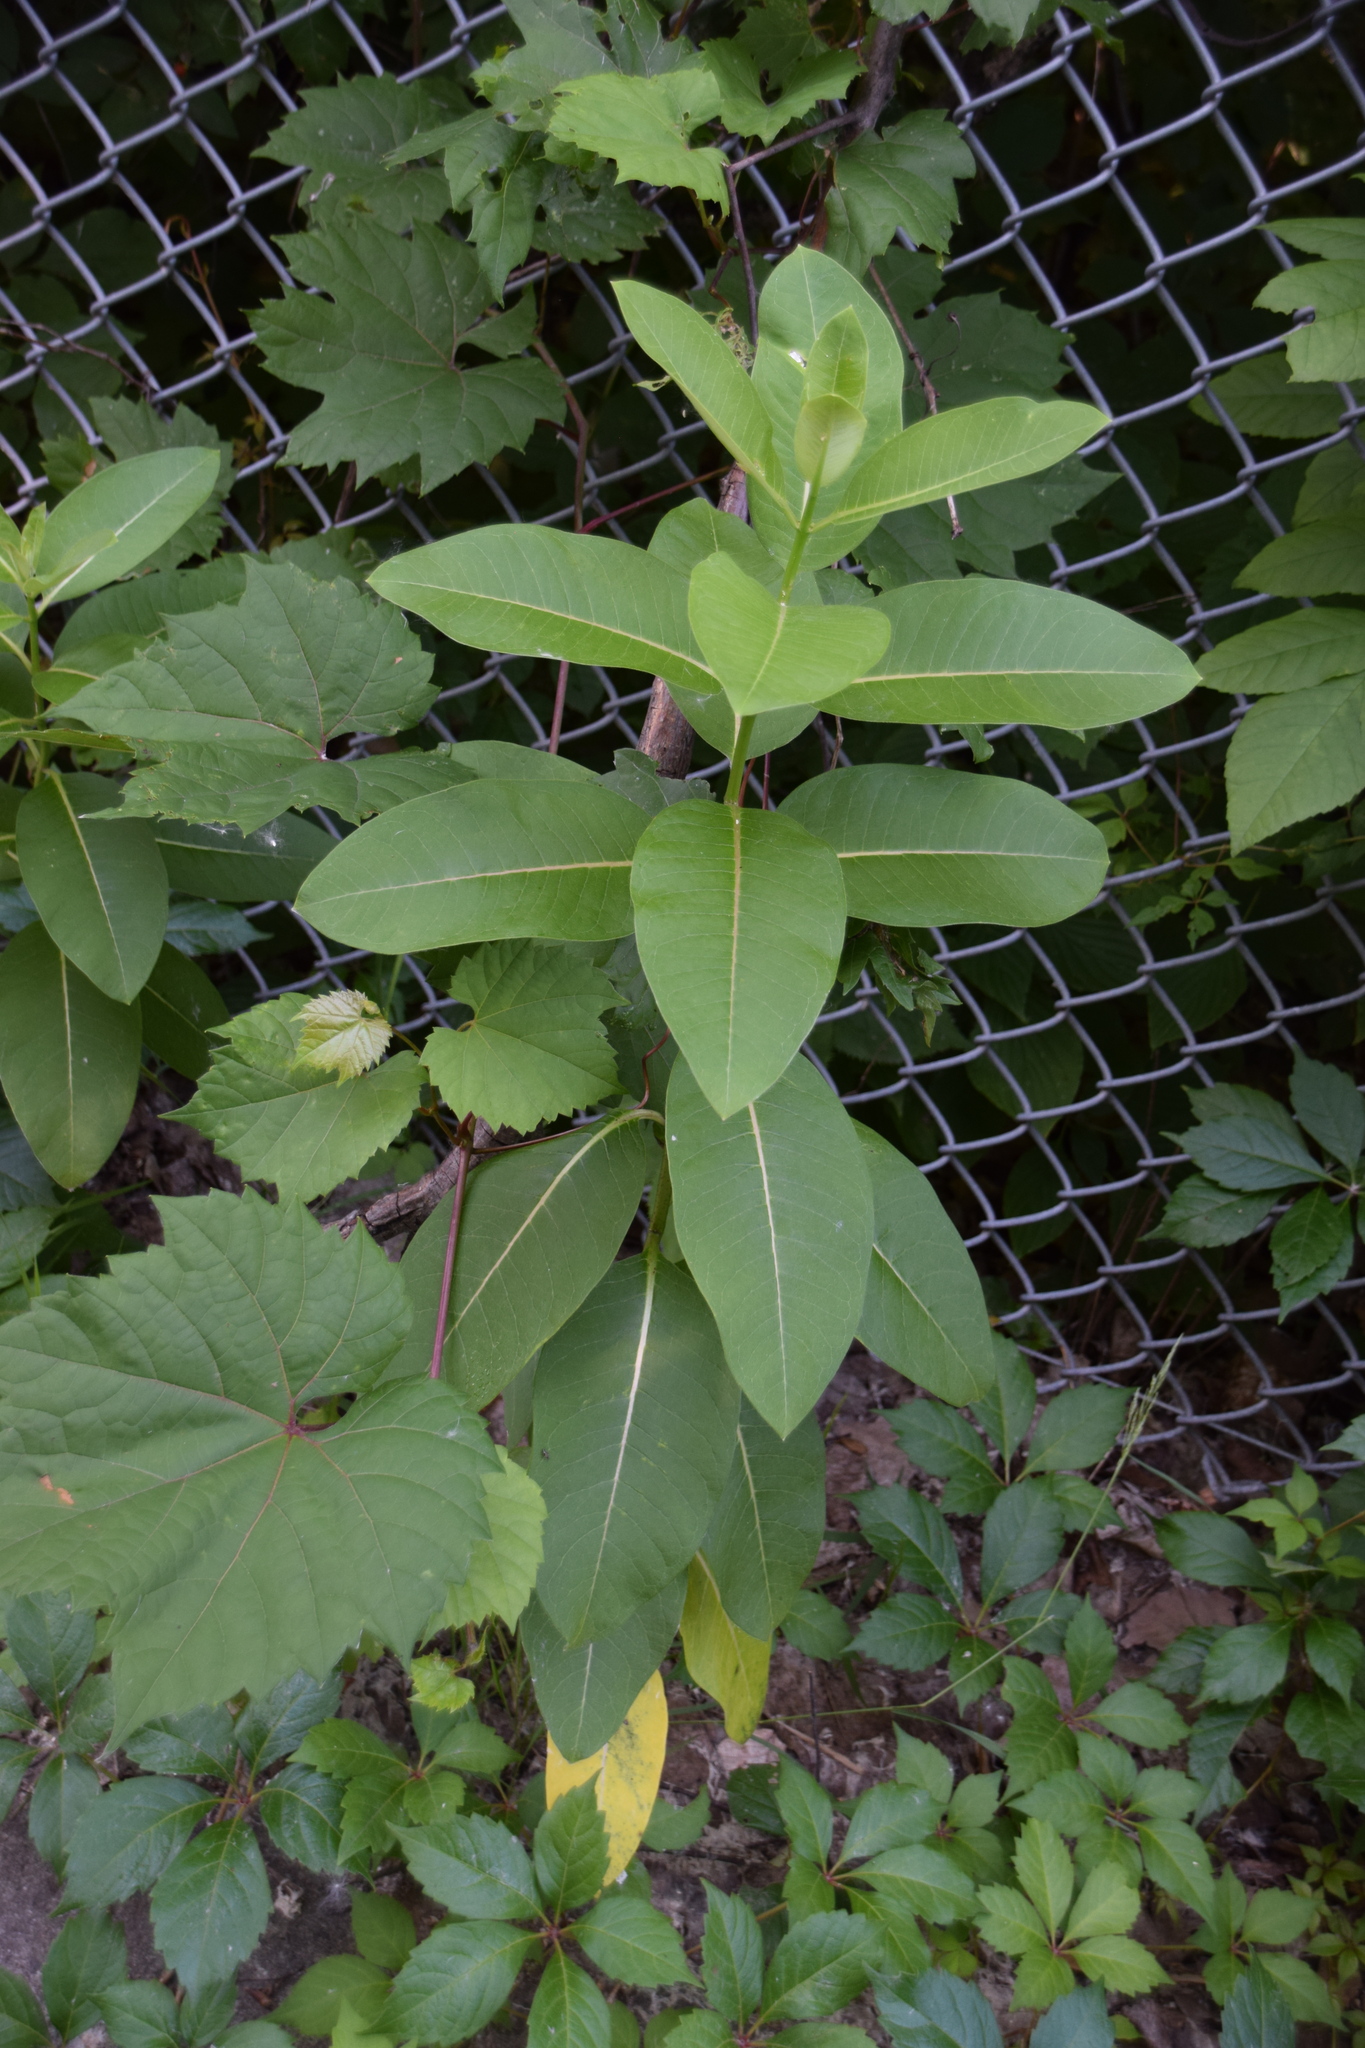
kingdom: Plantae
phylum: Tracheophyta
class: Magnoliopsida
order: Gentianales
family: Apocynaceae
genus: Asclepias
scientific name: Asclepias syriaca
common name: Common milkweed
